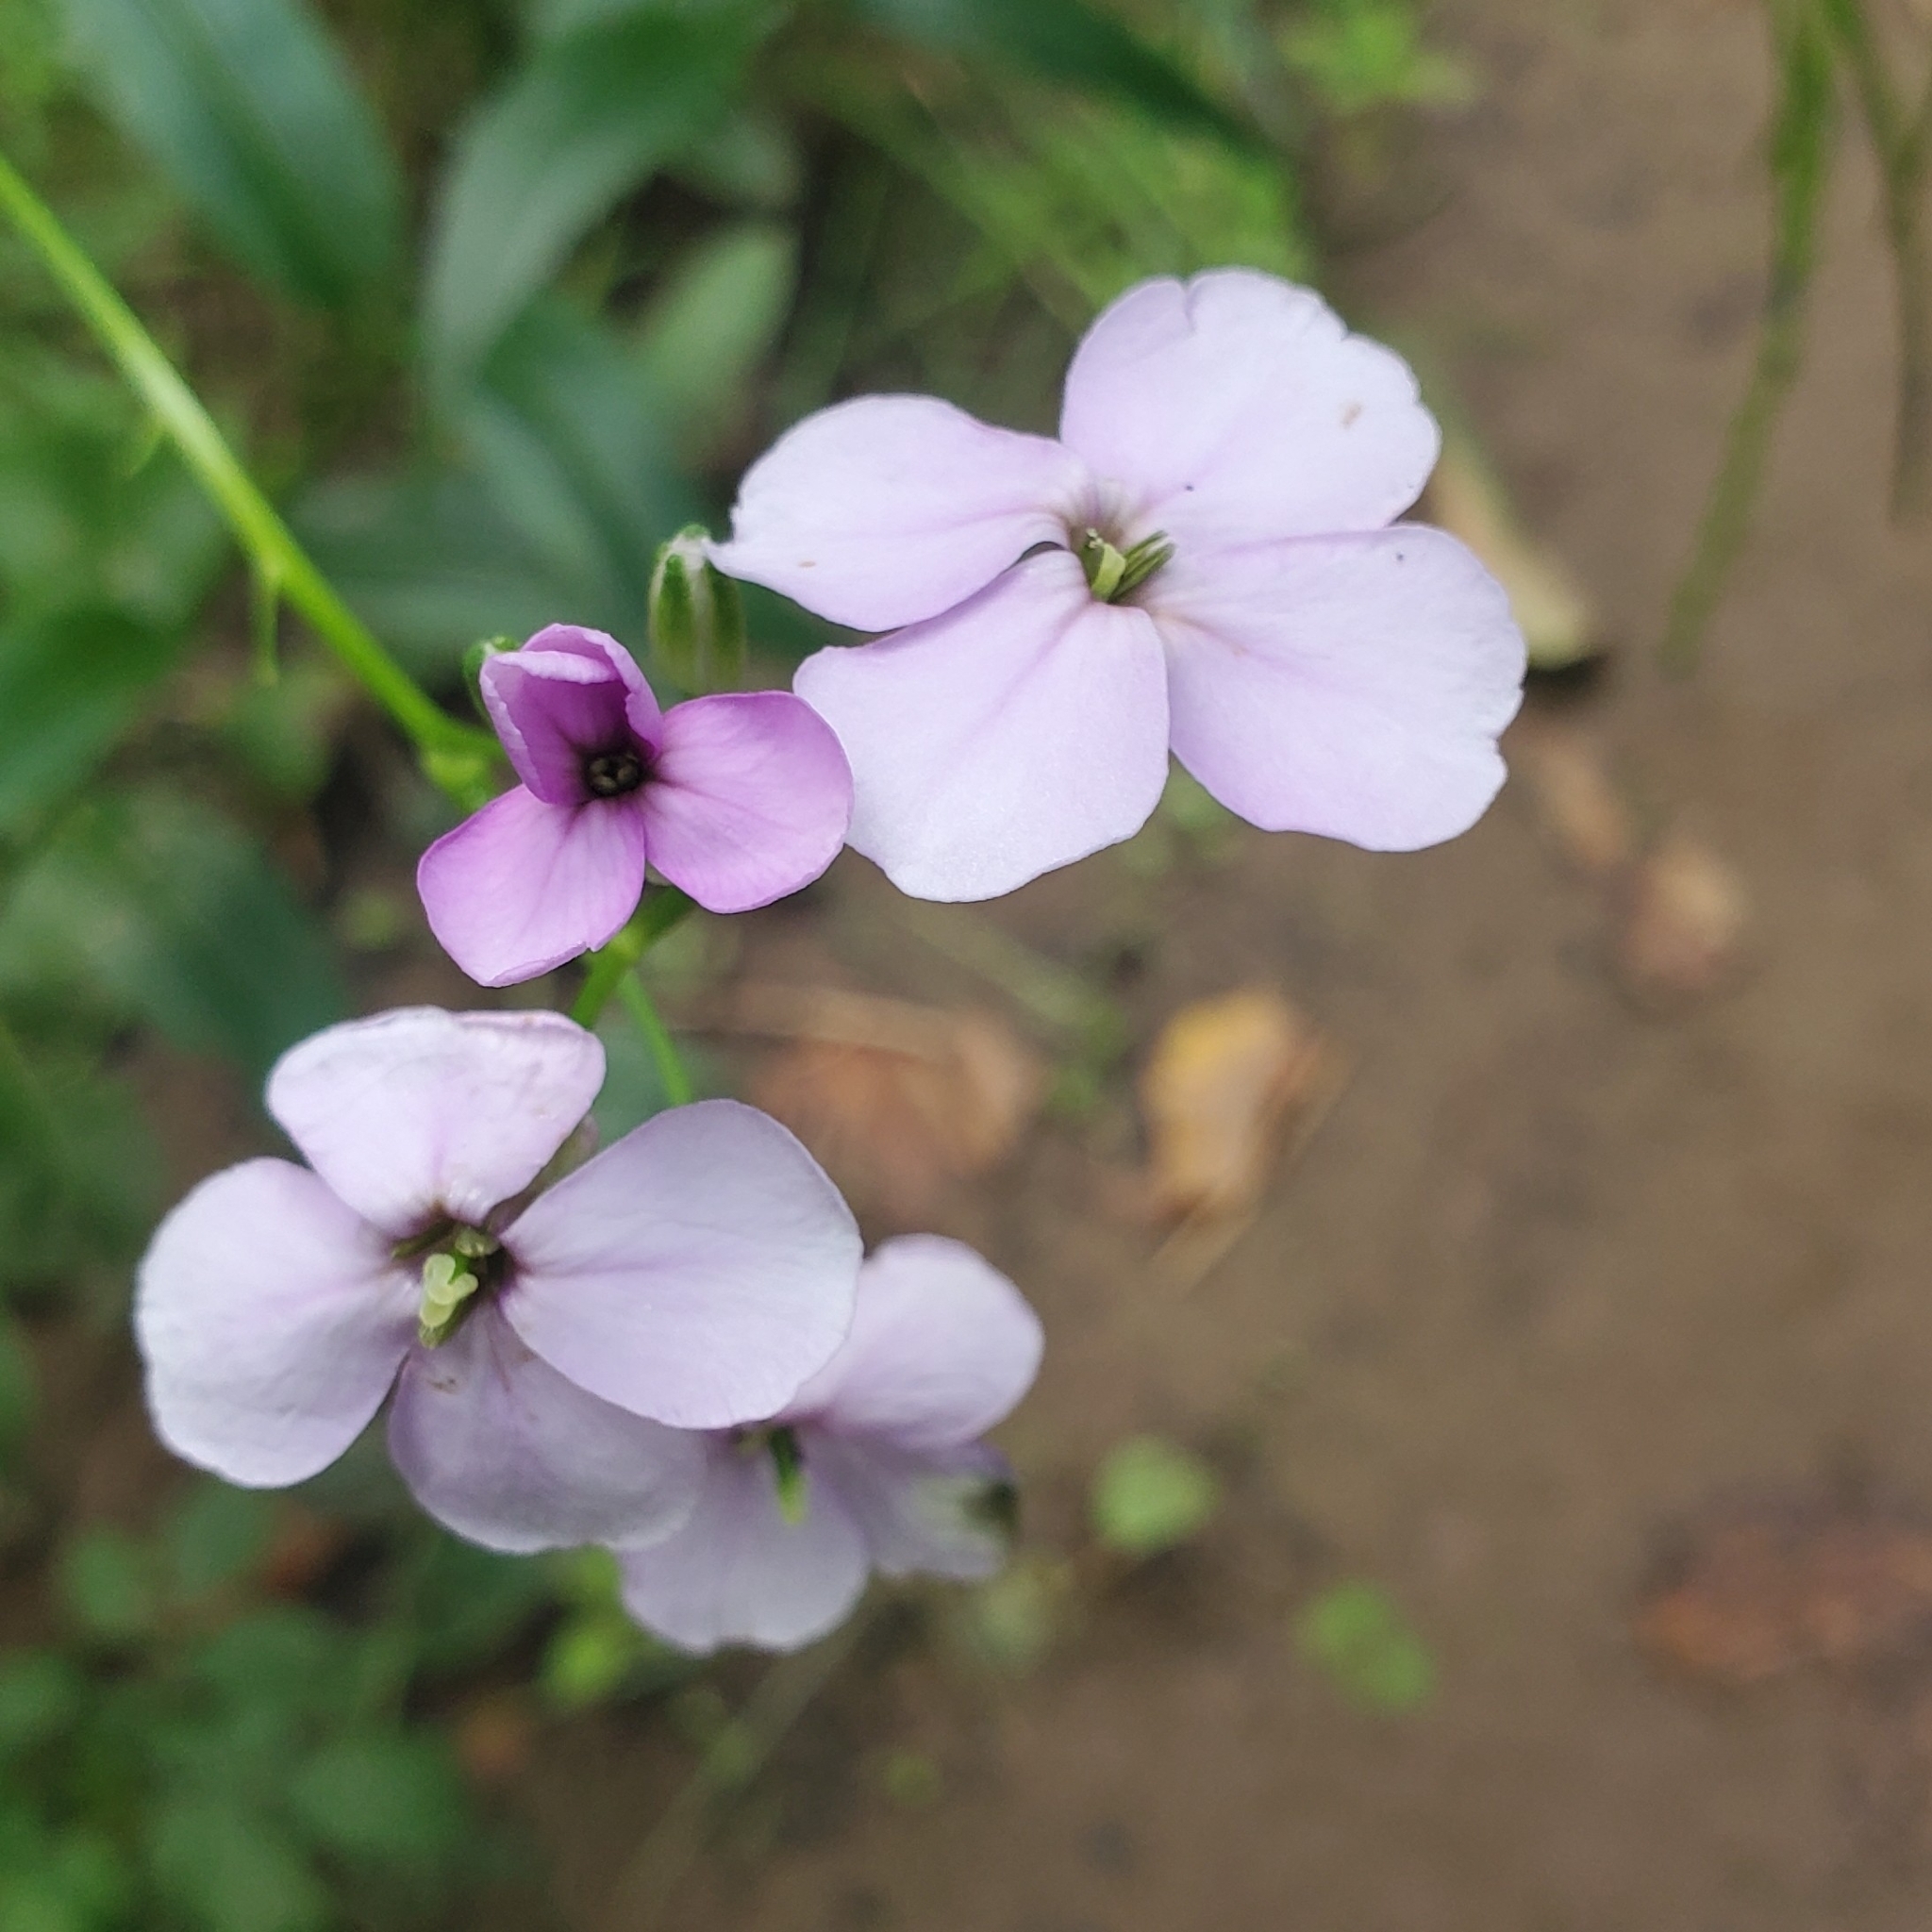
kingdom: Plantae
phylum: Tracheophyta
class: Magnoliopsida
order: Brassicales
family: Brassicaceae
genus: Hesperis
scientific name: Hesperis matronalis
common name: Dame's-violet
